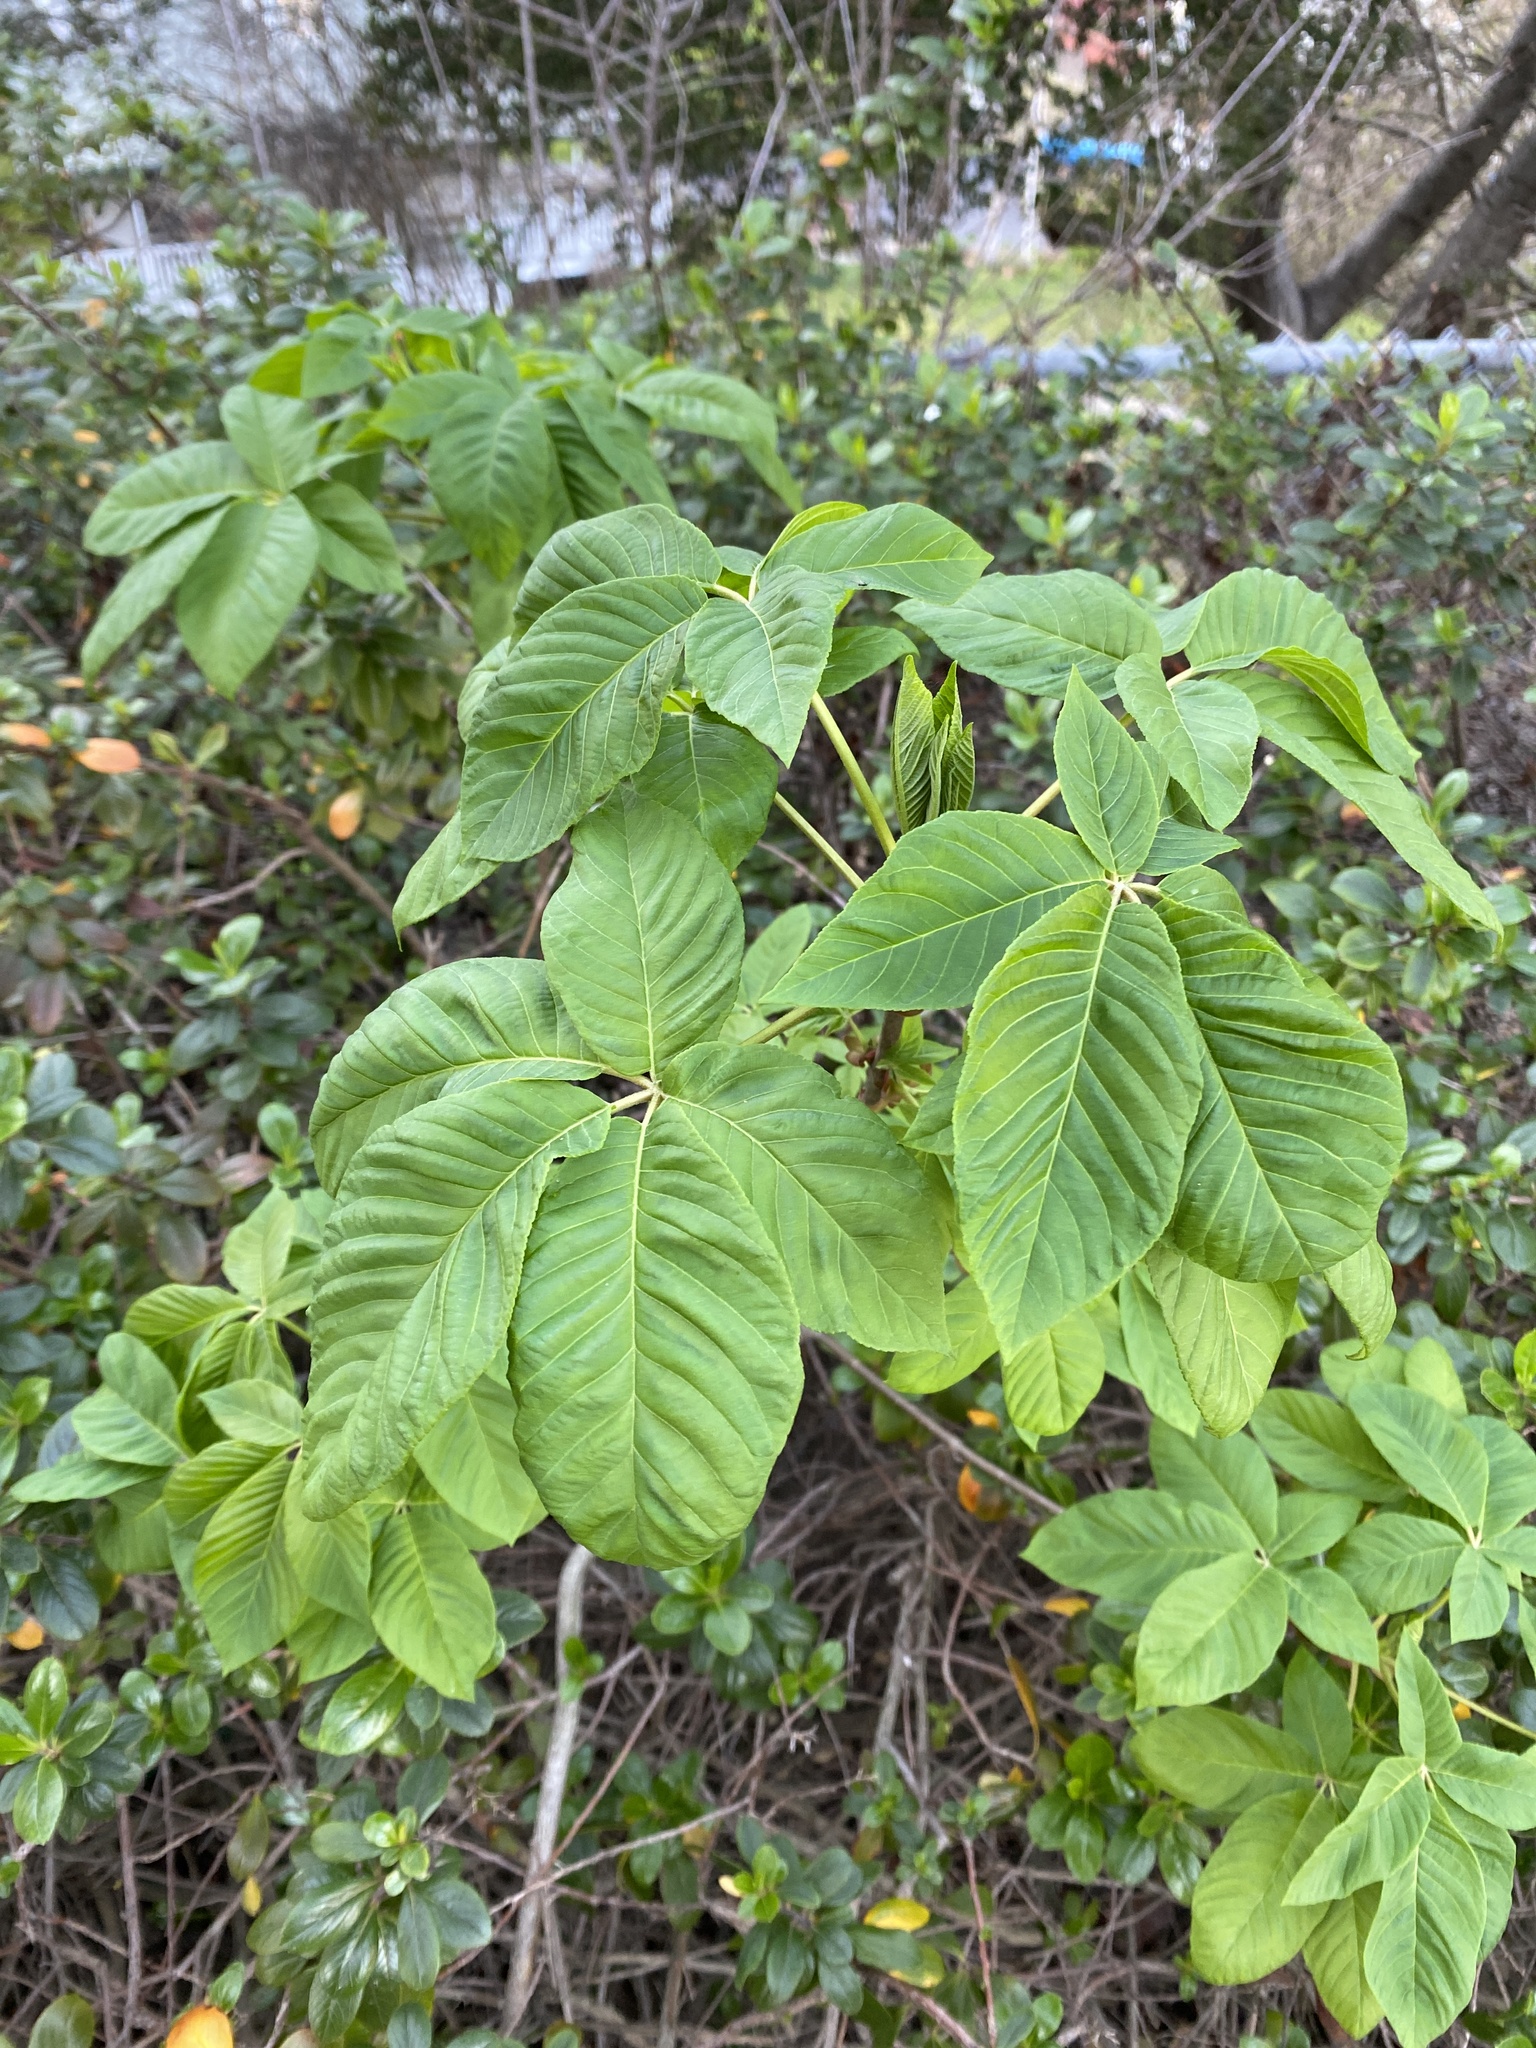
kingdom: Plantae
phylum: Tracheophyta
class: Magnoliopsida
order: Sapindales
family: Sapindaceae
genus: Aesculus
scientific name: Aesculus californica
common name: California buckeye
